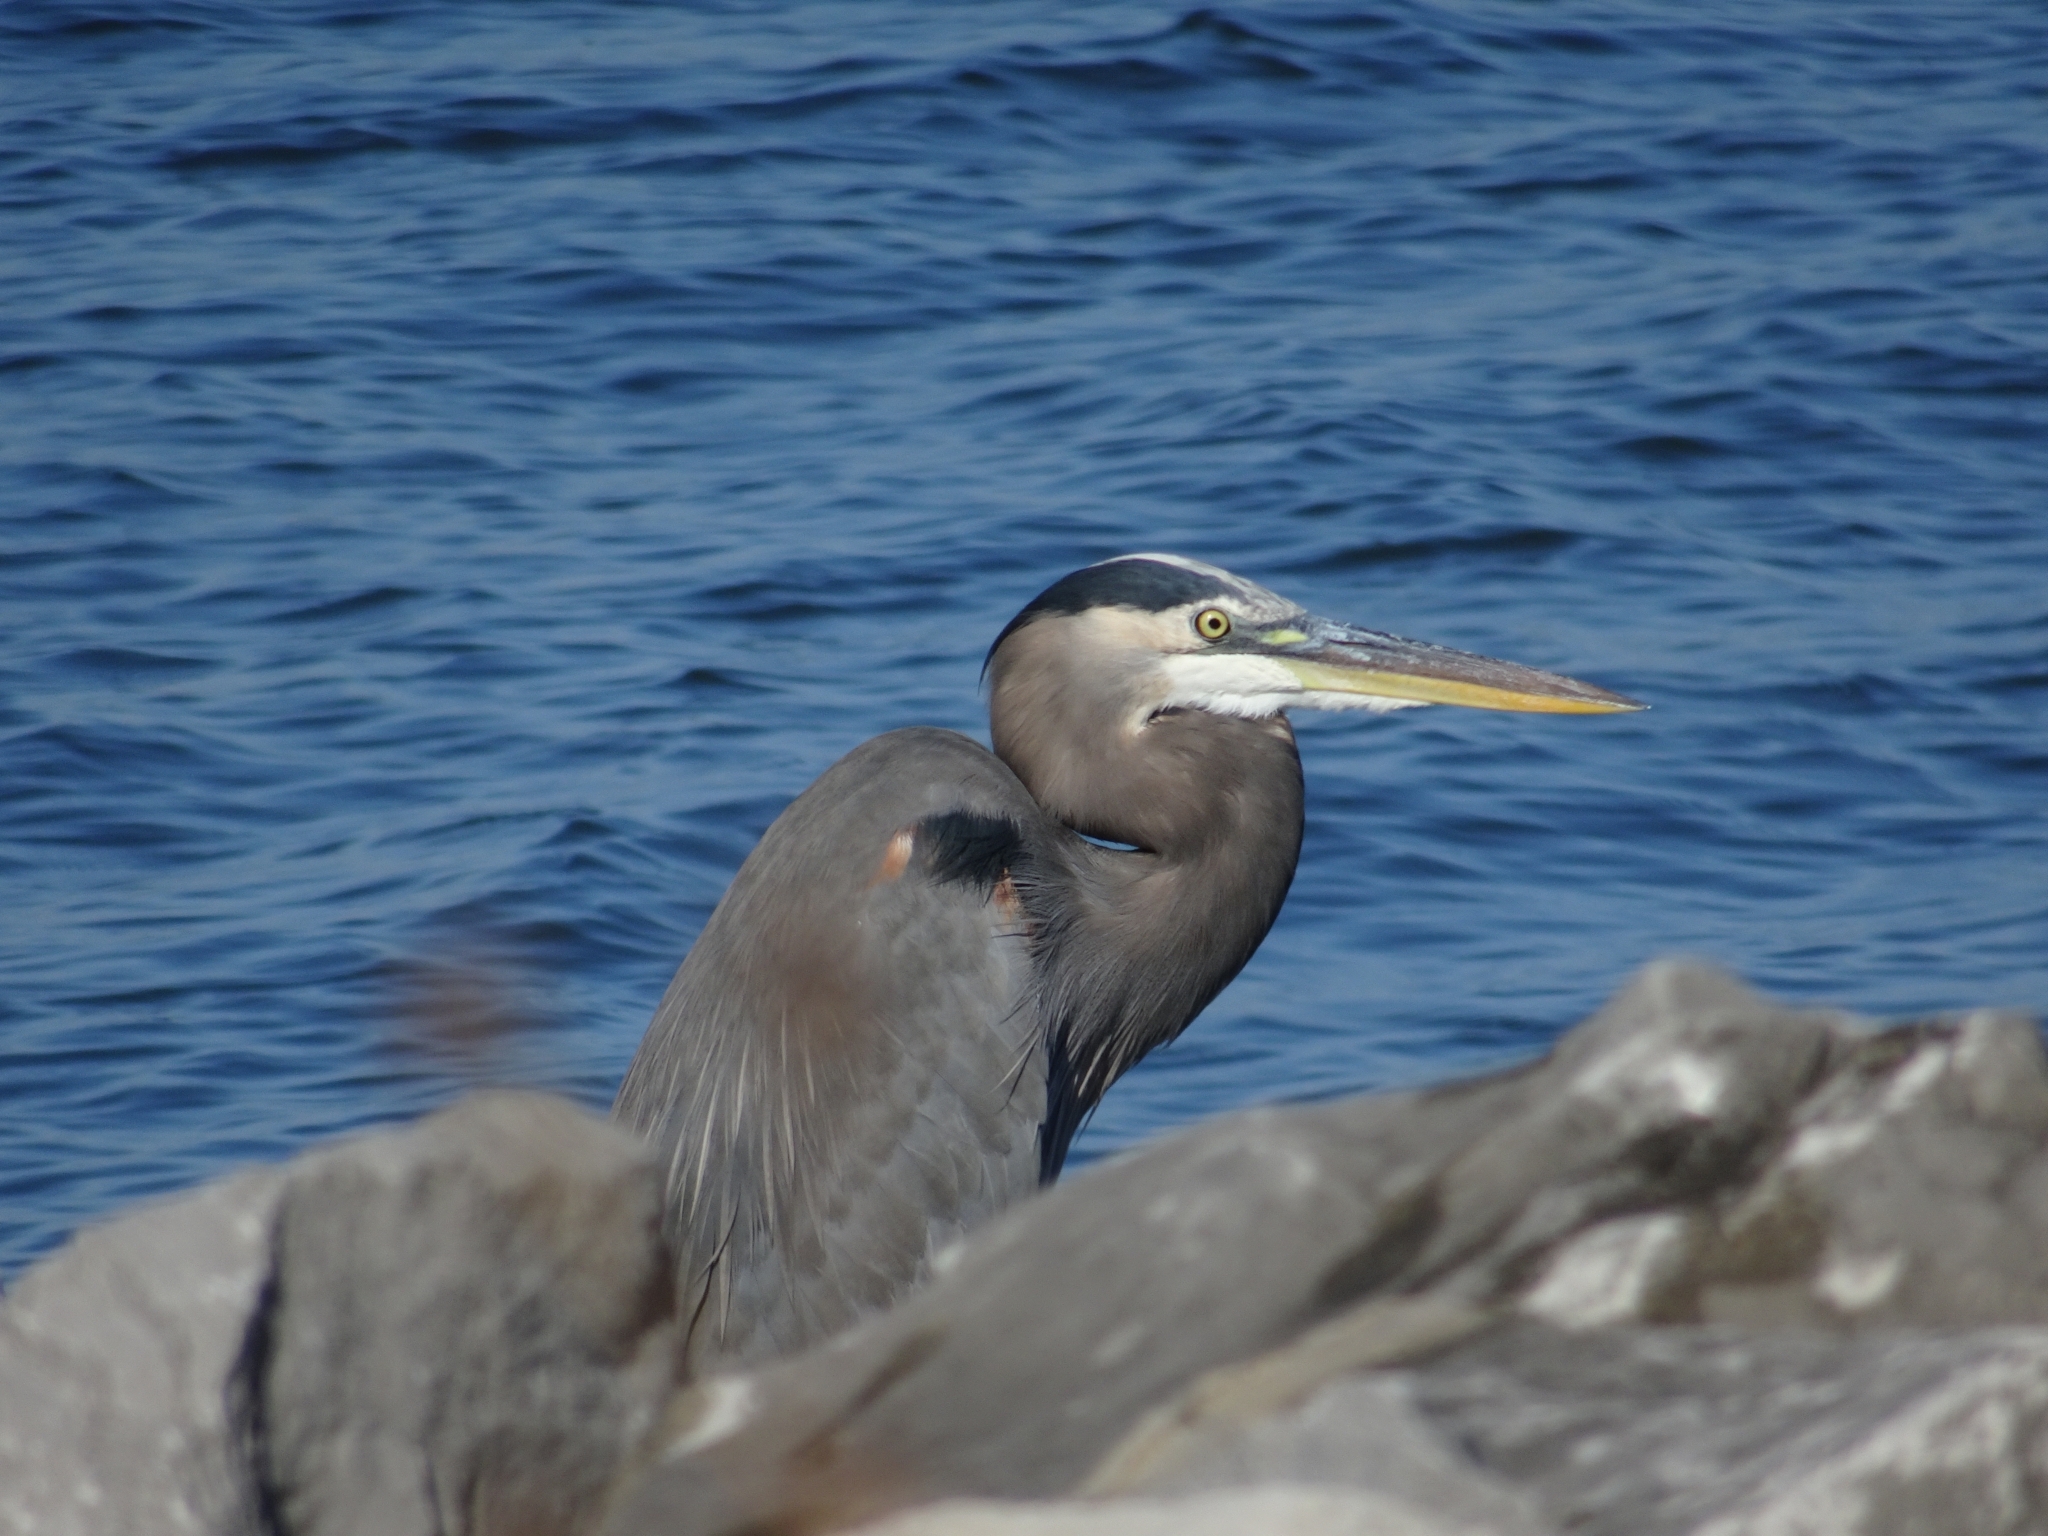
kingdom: Animalia
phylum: Chordata
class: Aves
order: Pelecaniformes
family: Ardeidae
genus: Ardea
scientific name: Ardea herodias
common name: Great blue heron
